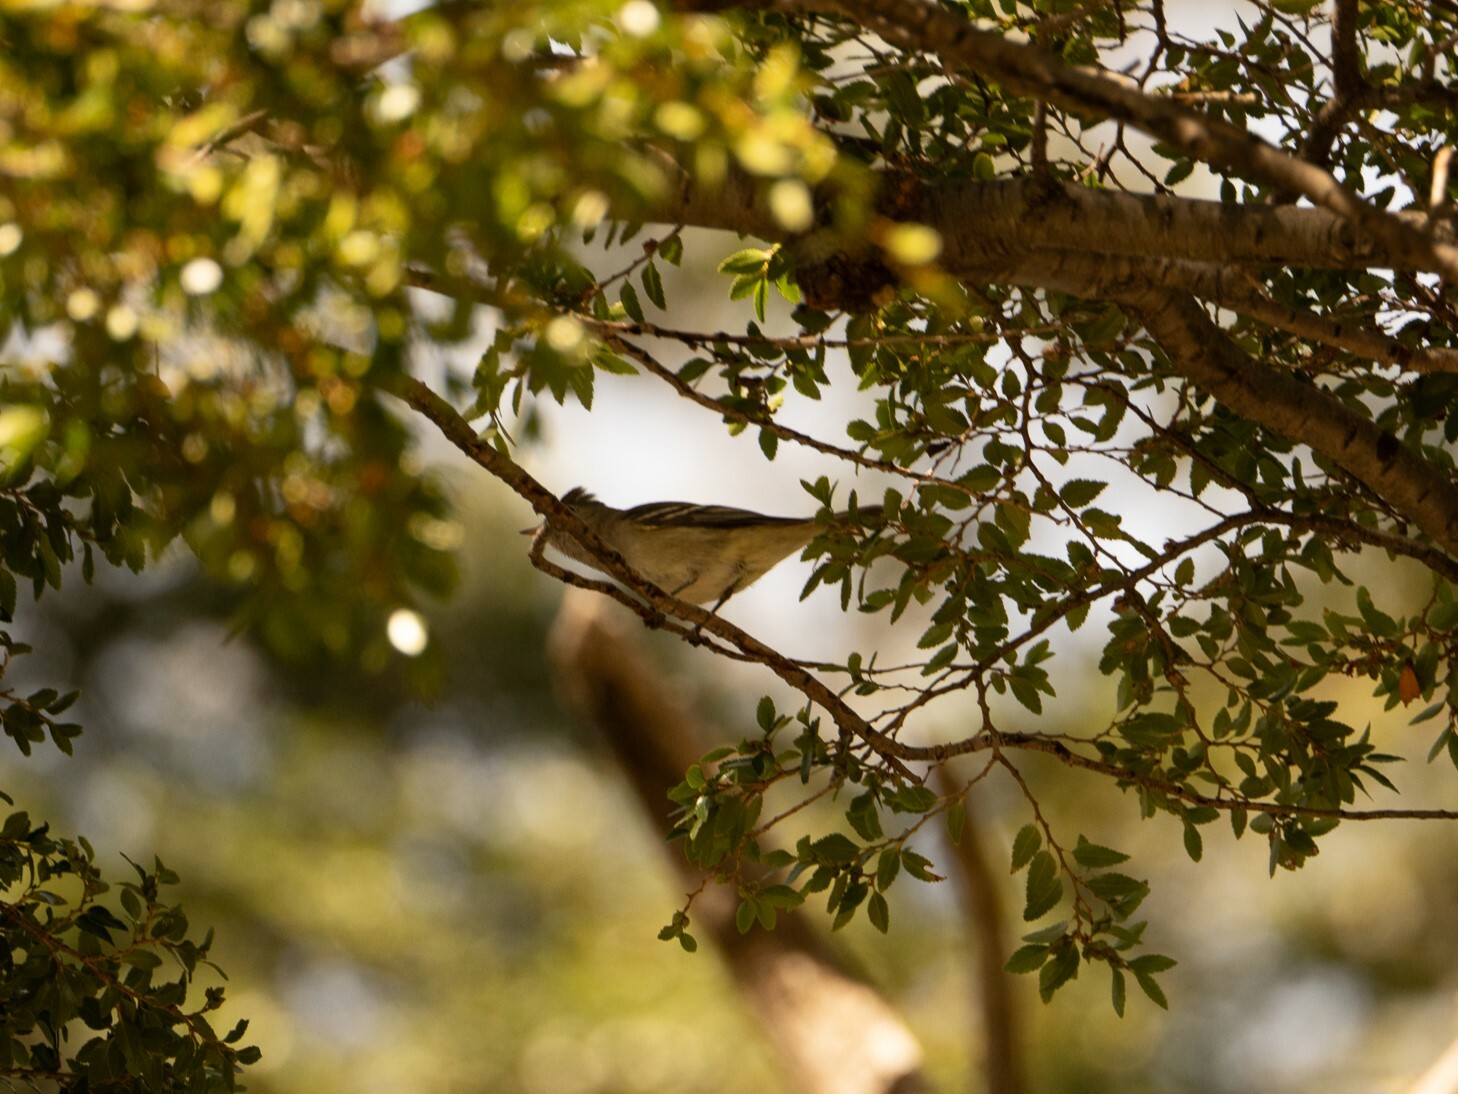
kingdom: Animalia
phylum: Chordata
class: Aves
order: Passeriformes
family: Tyrannidae
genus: Elaenia
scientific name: Elaenia albiceps
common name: White-crested elaenia
